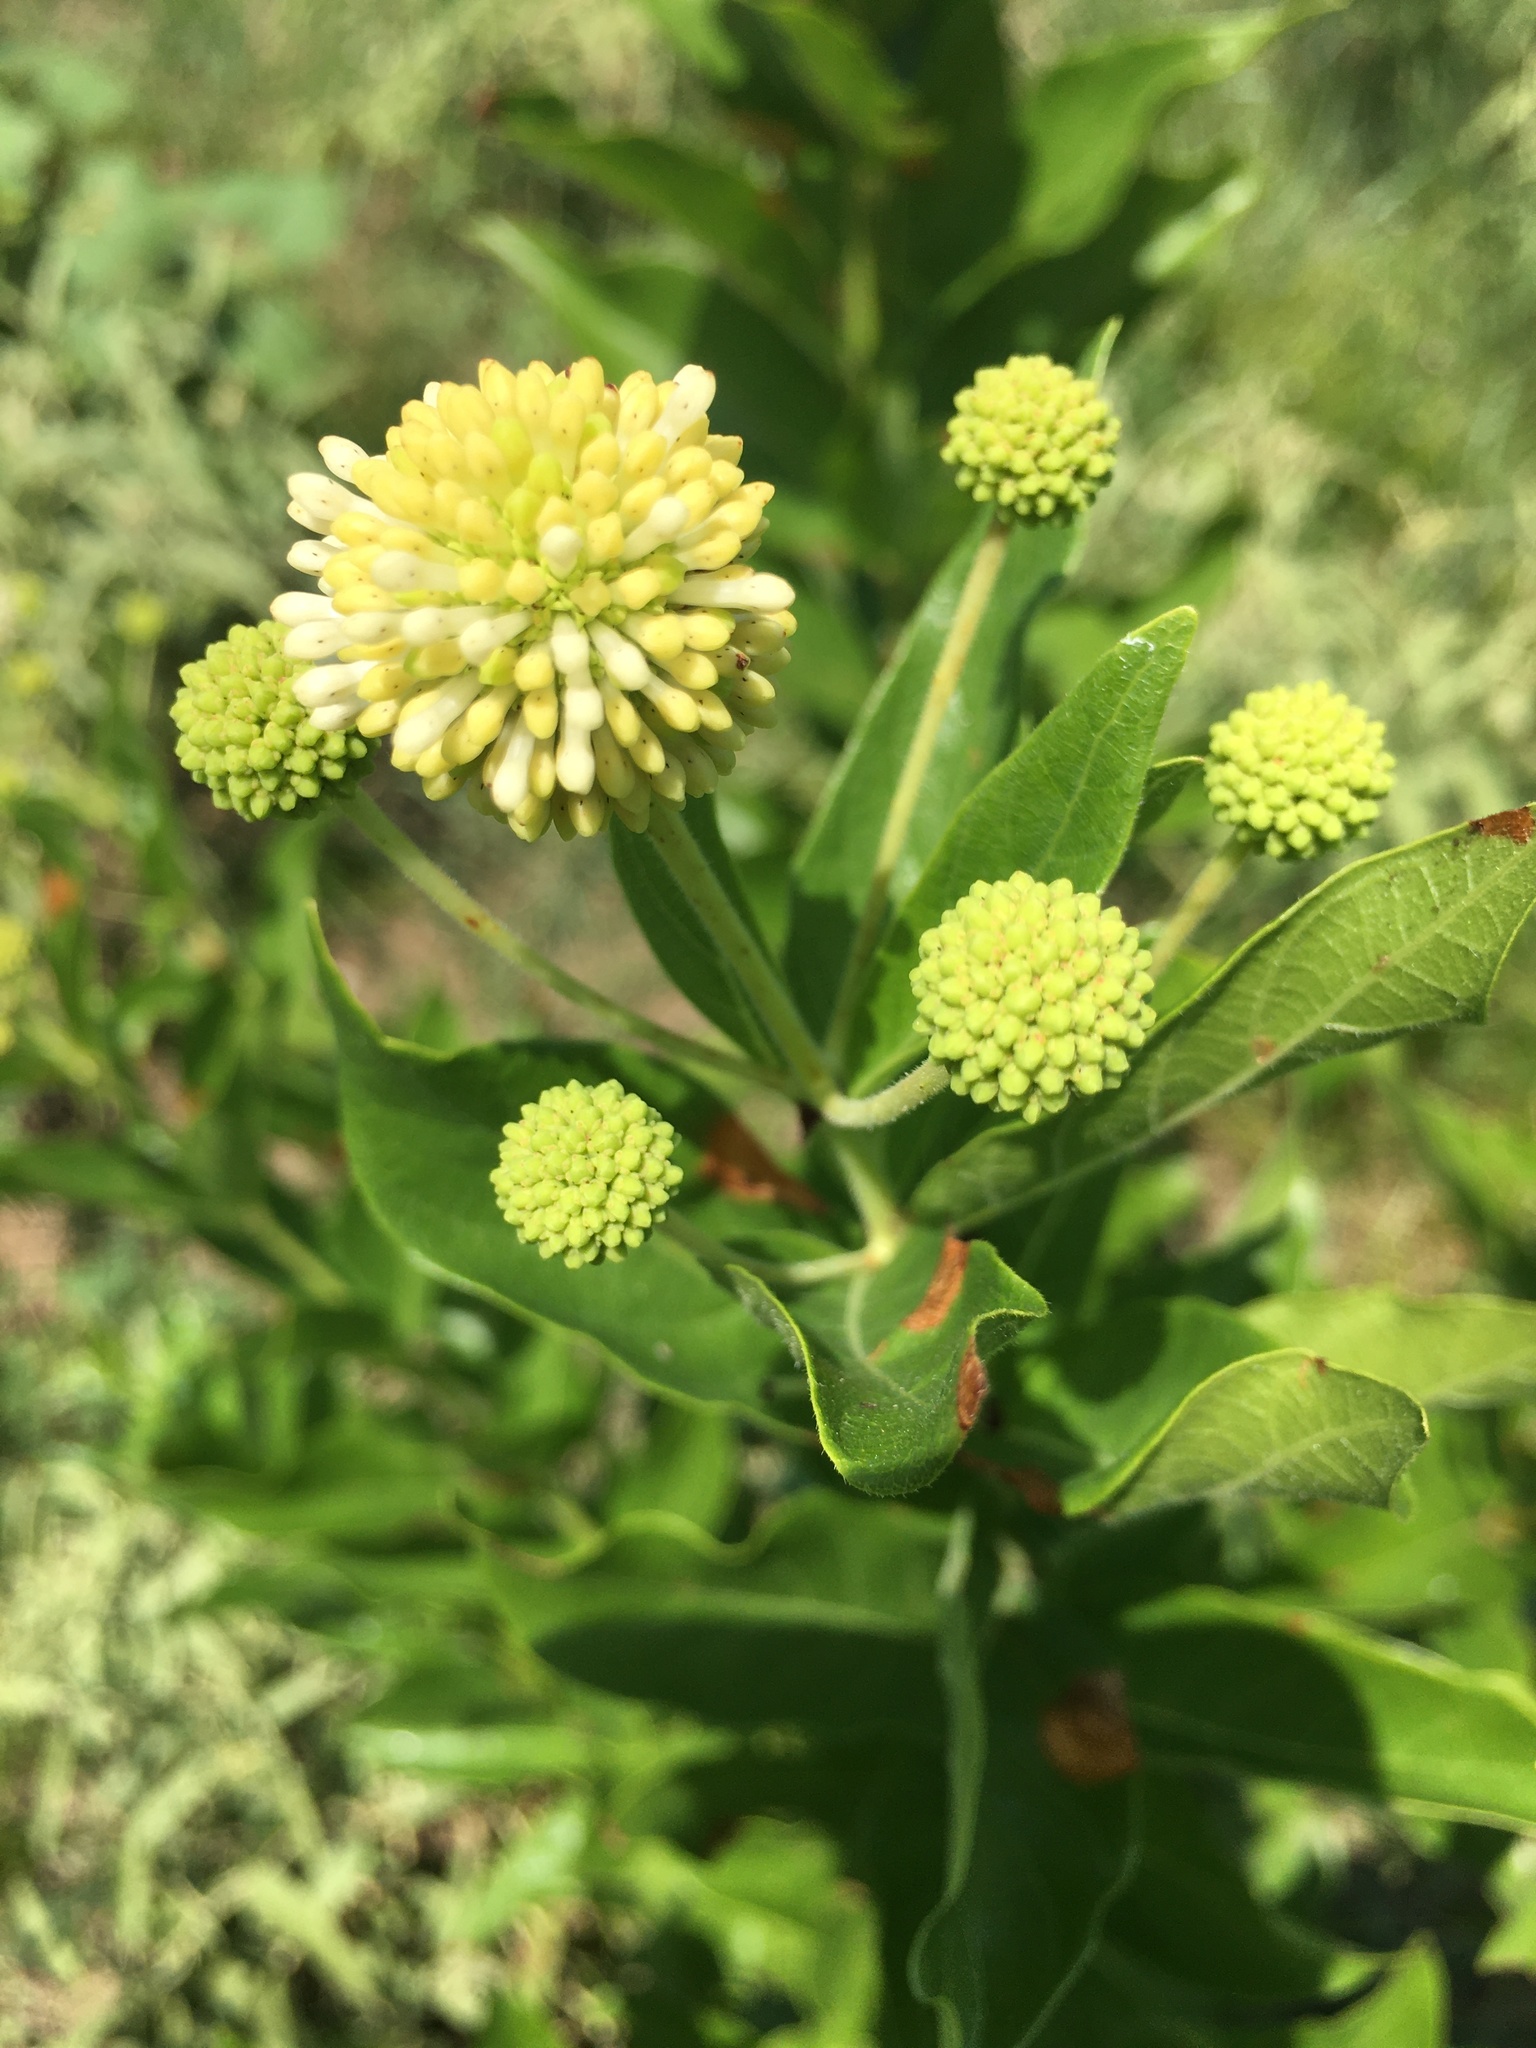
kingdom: Plantae
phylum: Tracheophyta
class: Magnoliopsida
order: Gentianales
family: Rubiaceae
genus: Cephalanthus
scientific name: Cephalanthus occidentalis
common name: Button-willow
